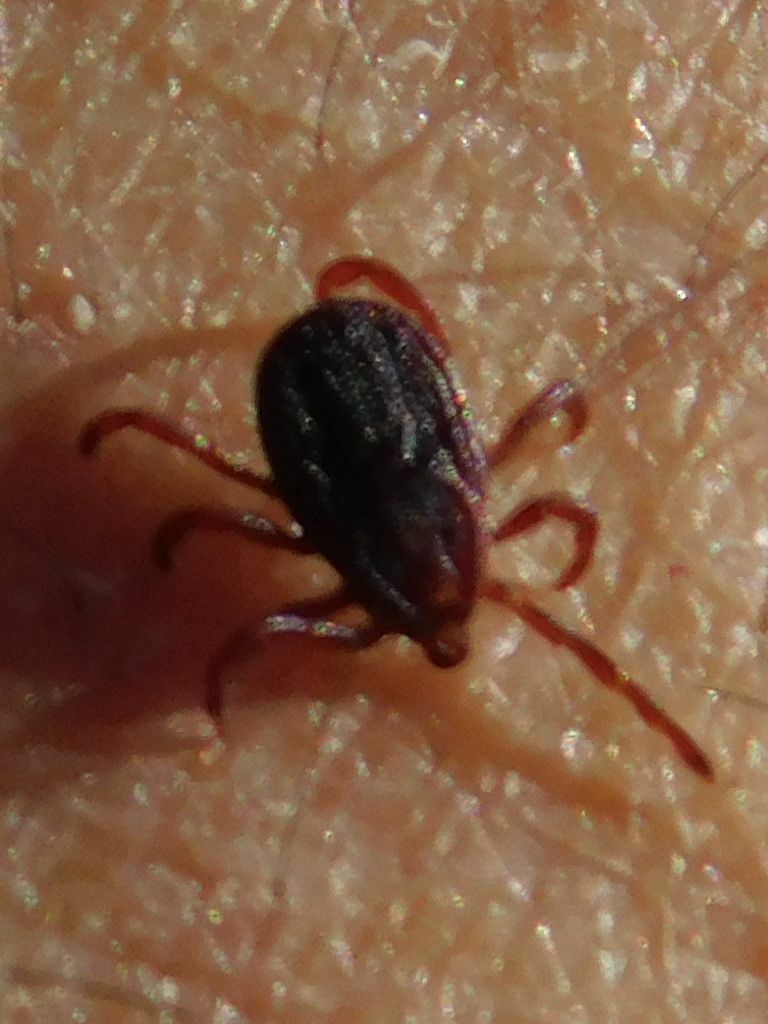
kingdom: Animalia
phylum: Arthropoda
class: Arachnida
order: Ixodida
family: Ixodidae
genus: Rhipicephalus
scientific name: Rhipicephalus sanguineus
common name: Brown dog tick
